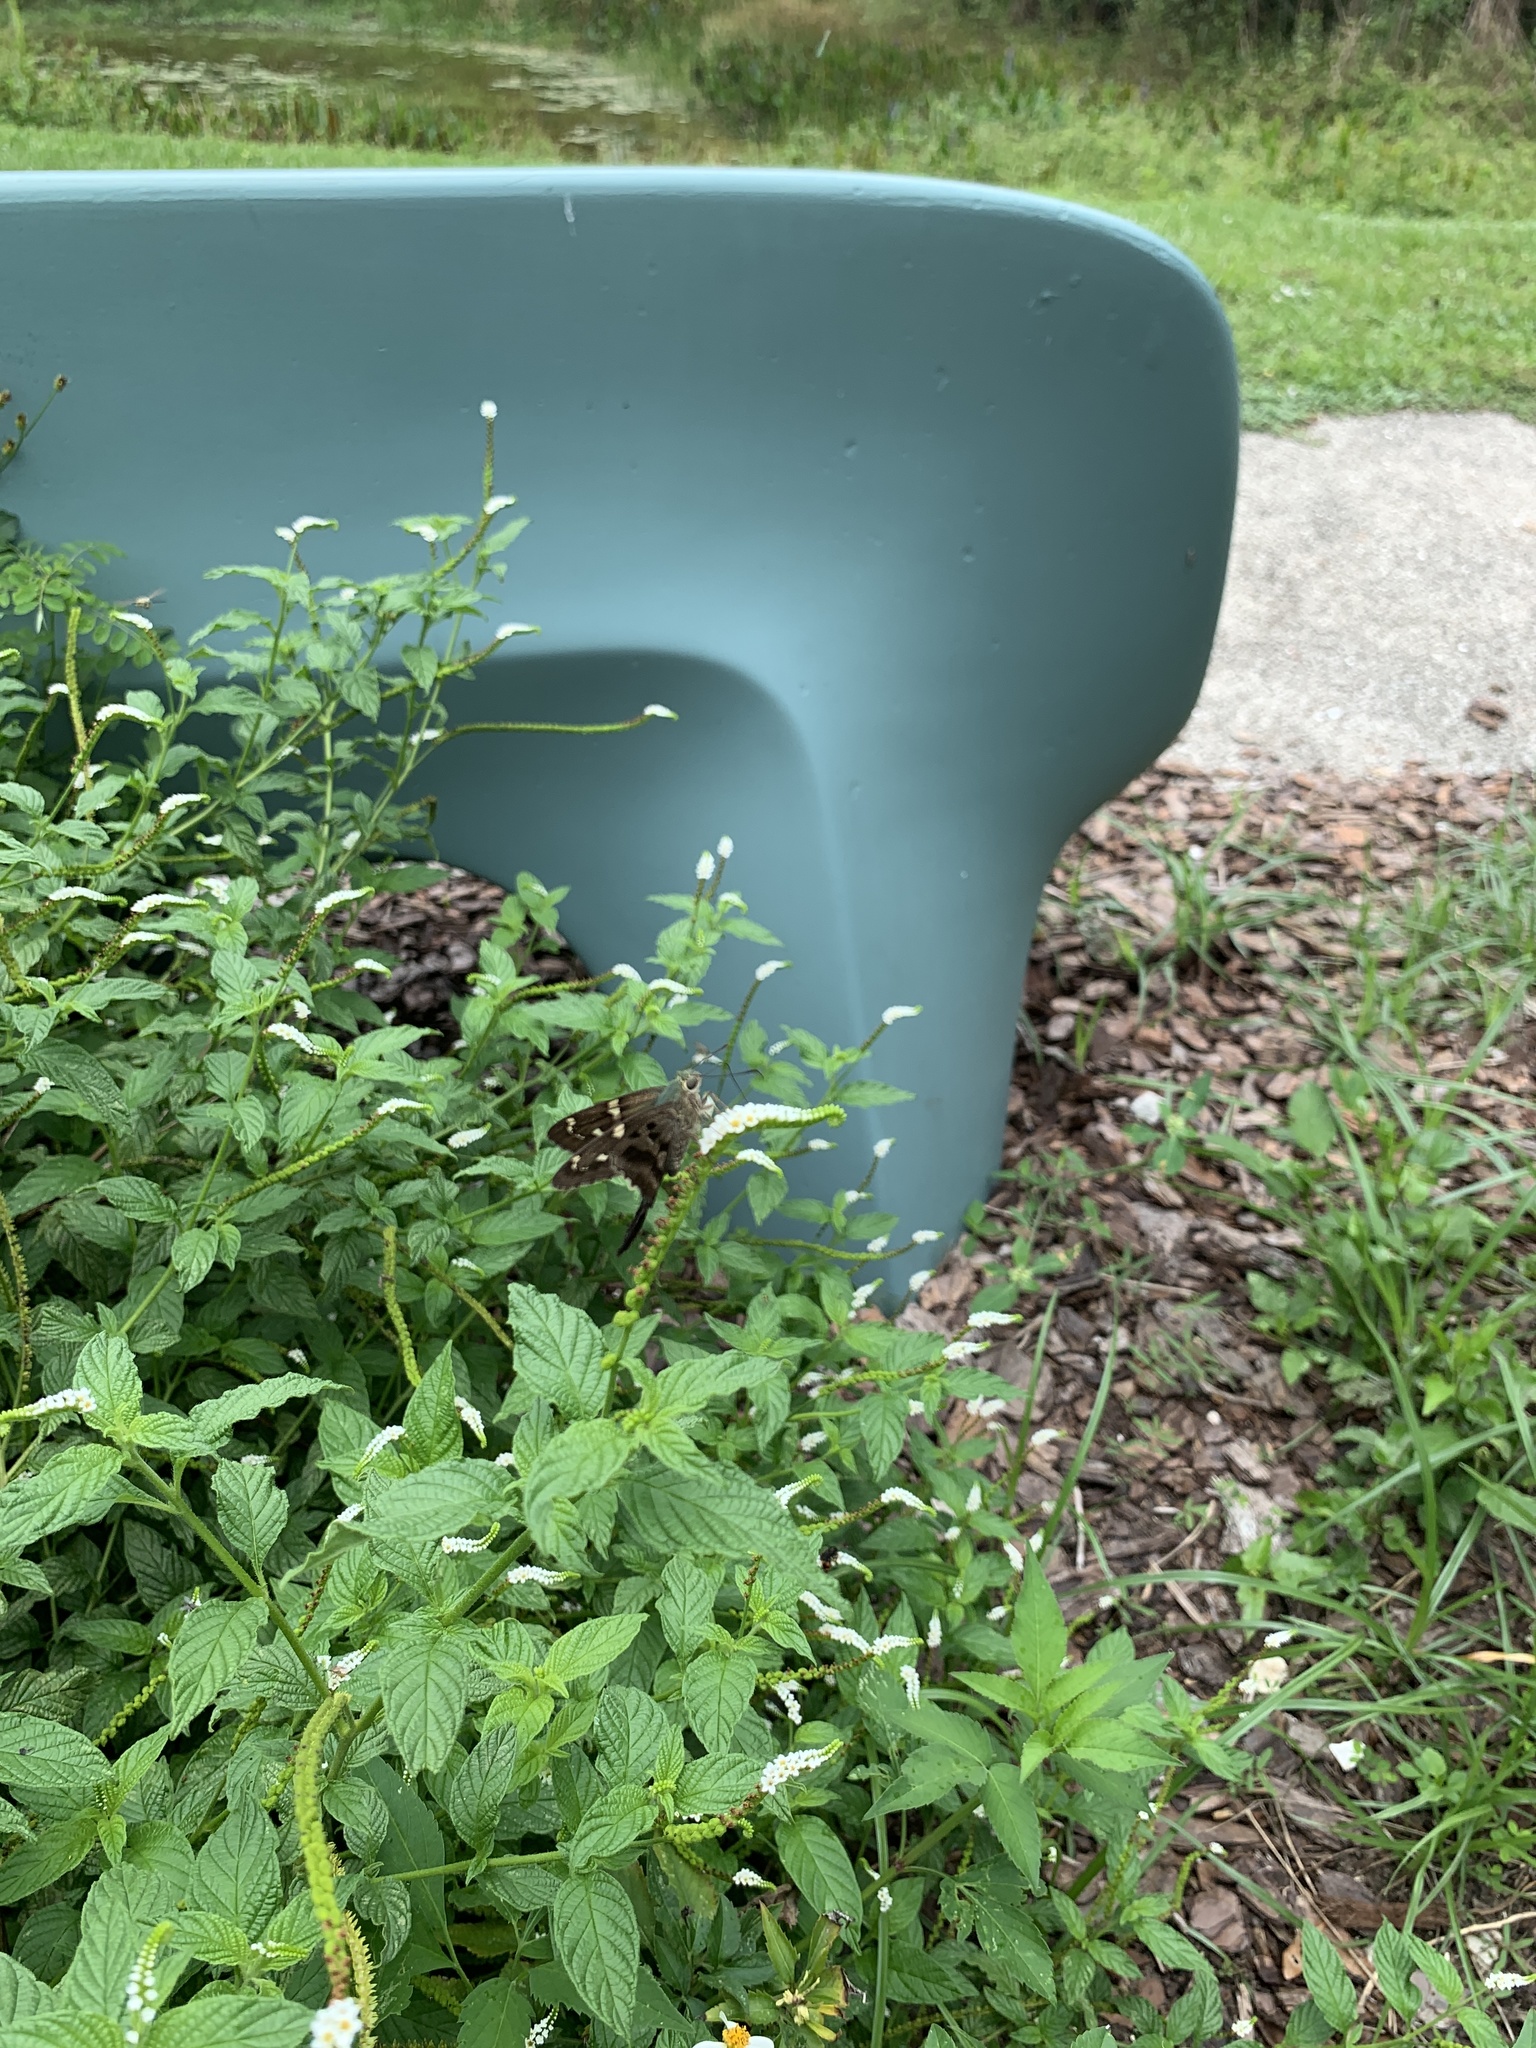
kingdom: Animalia
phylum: Arthropoda
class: Insecta
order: Lepidoptera
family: Hesperiidae
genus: Urbanus
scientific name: Urbanus proteus
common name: Long-tailed skipper
